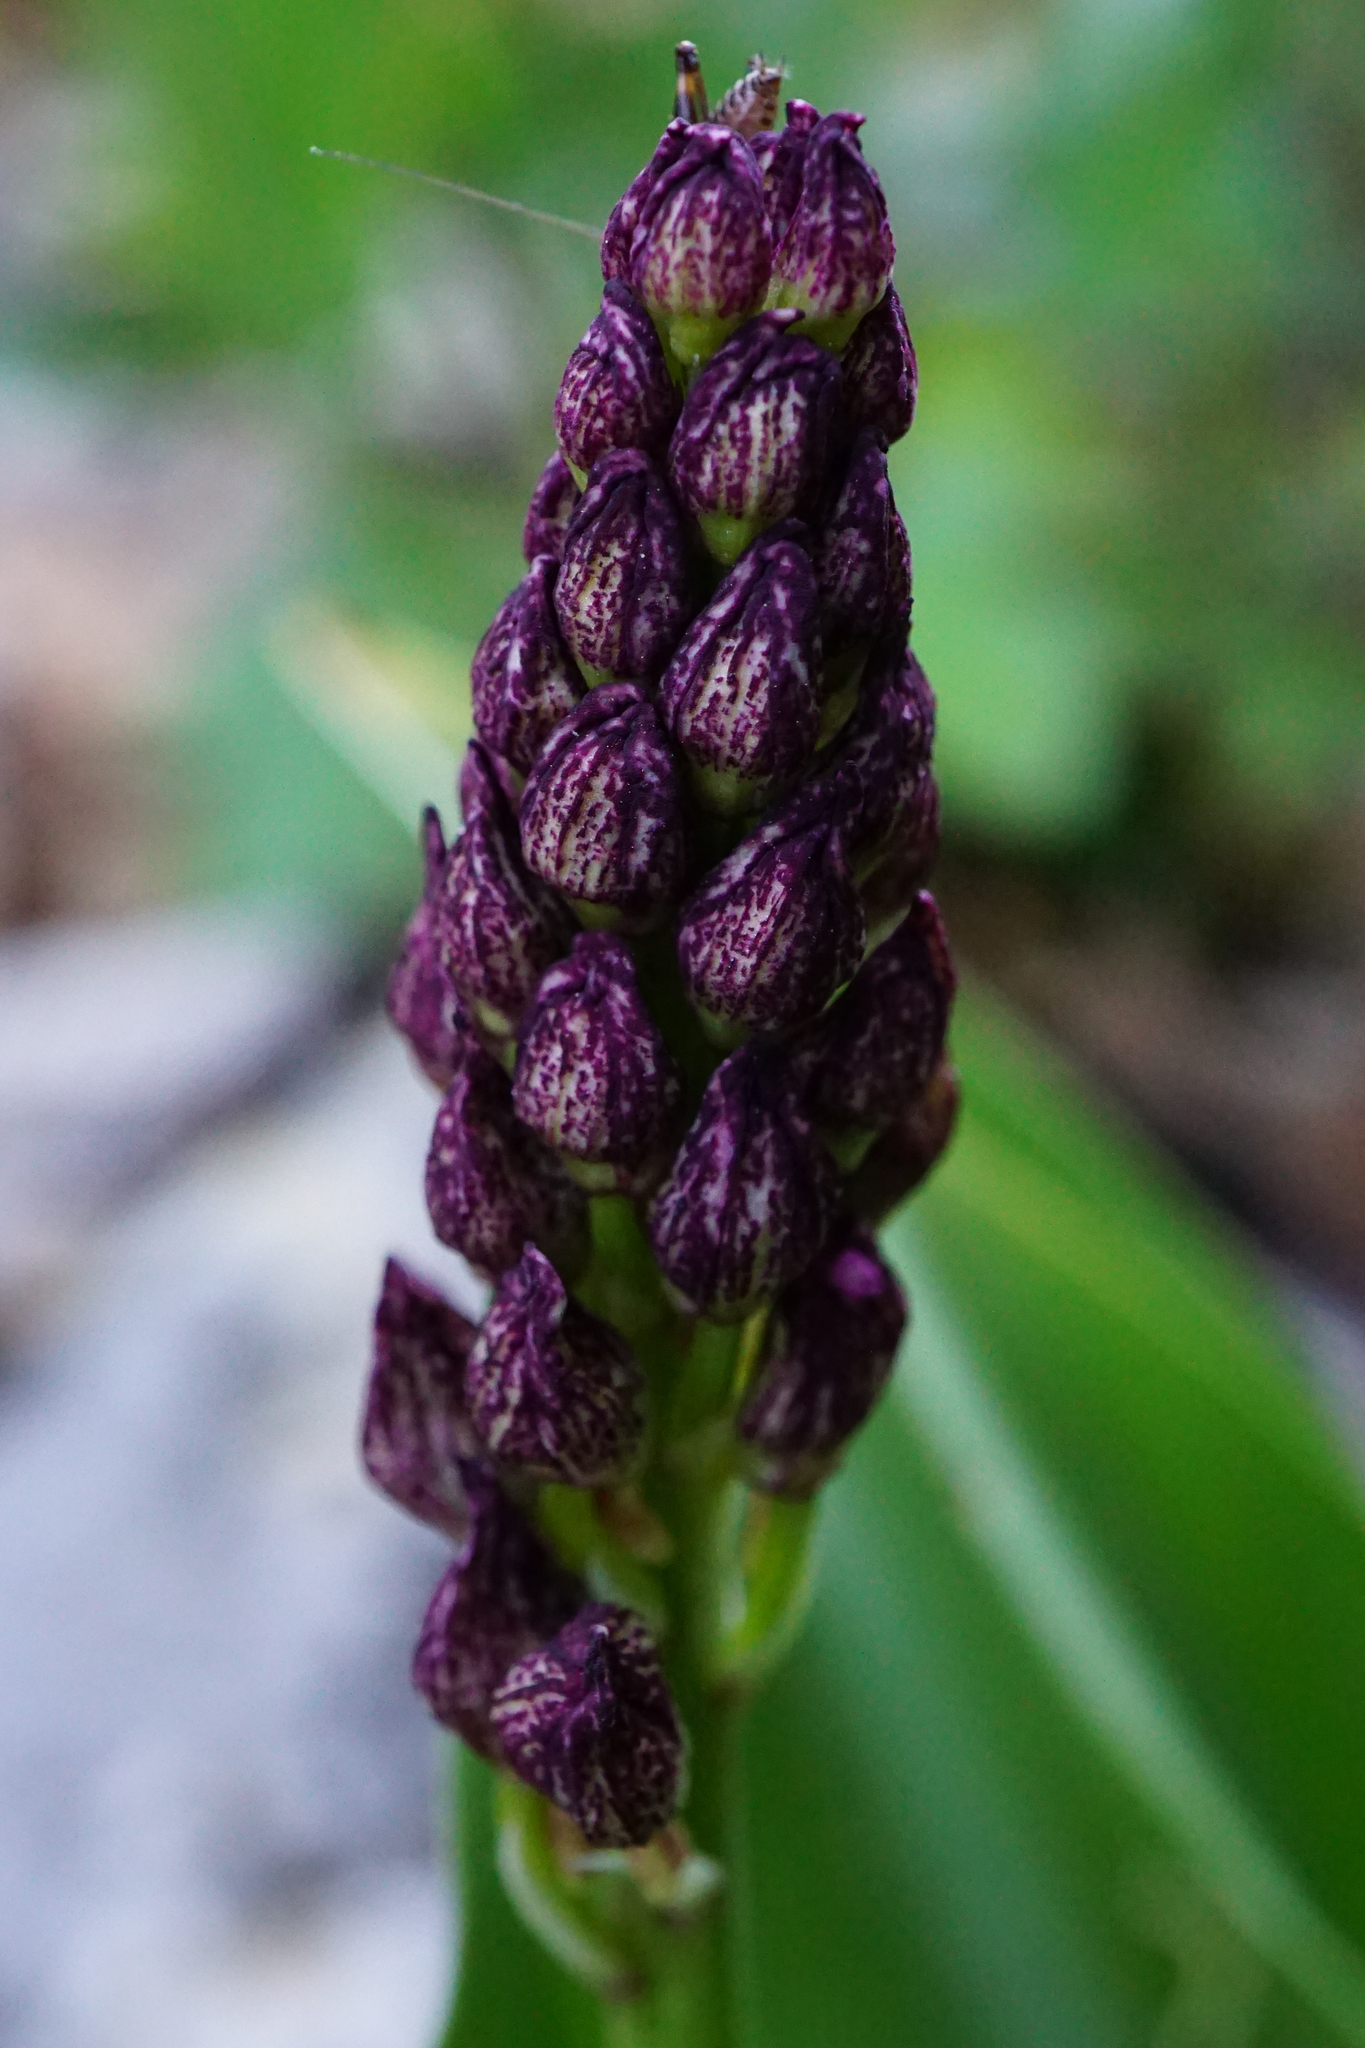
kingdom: Plantae
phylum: Tracheophyta
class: Liliopsida
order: Asparagales
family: Orchidaceae
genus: Orchis
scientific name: Orchis purpurea
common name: Lady orchid
